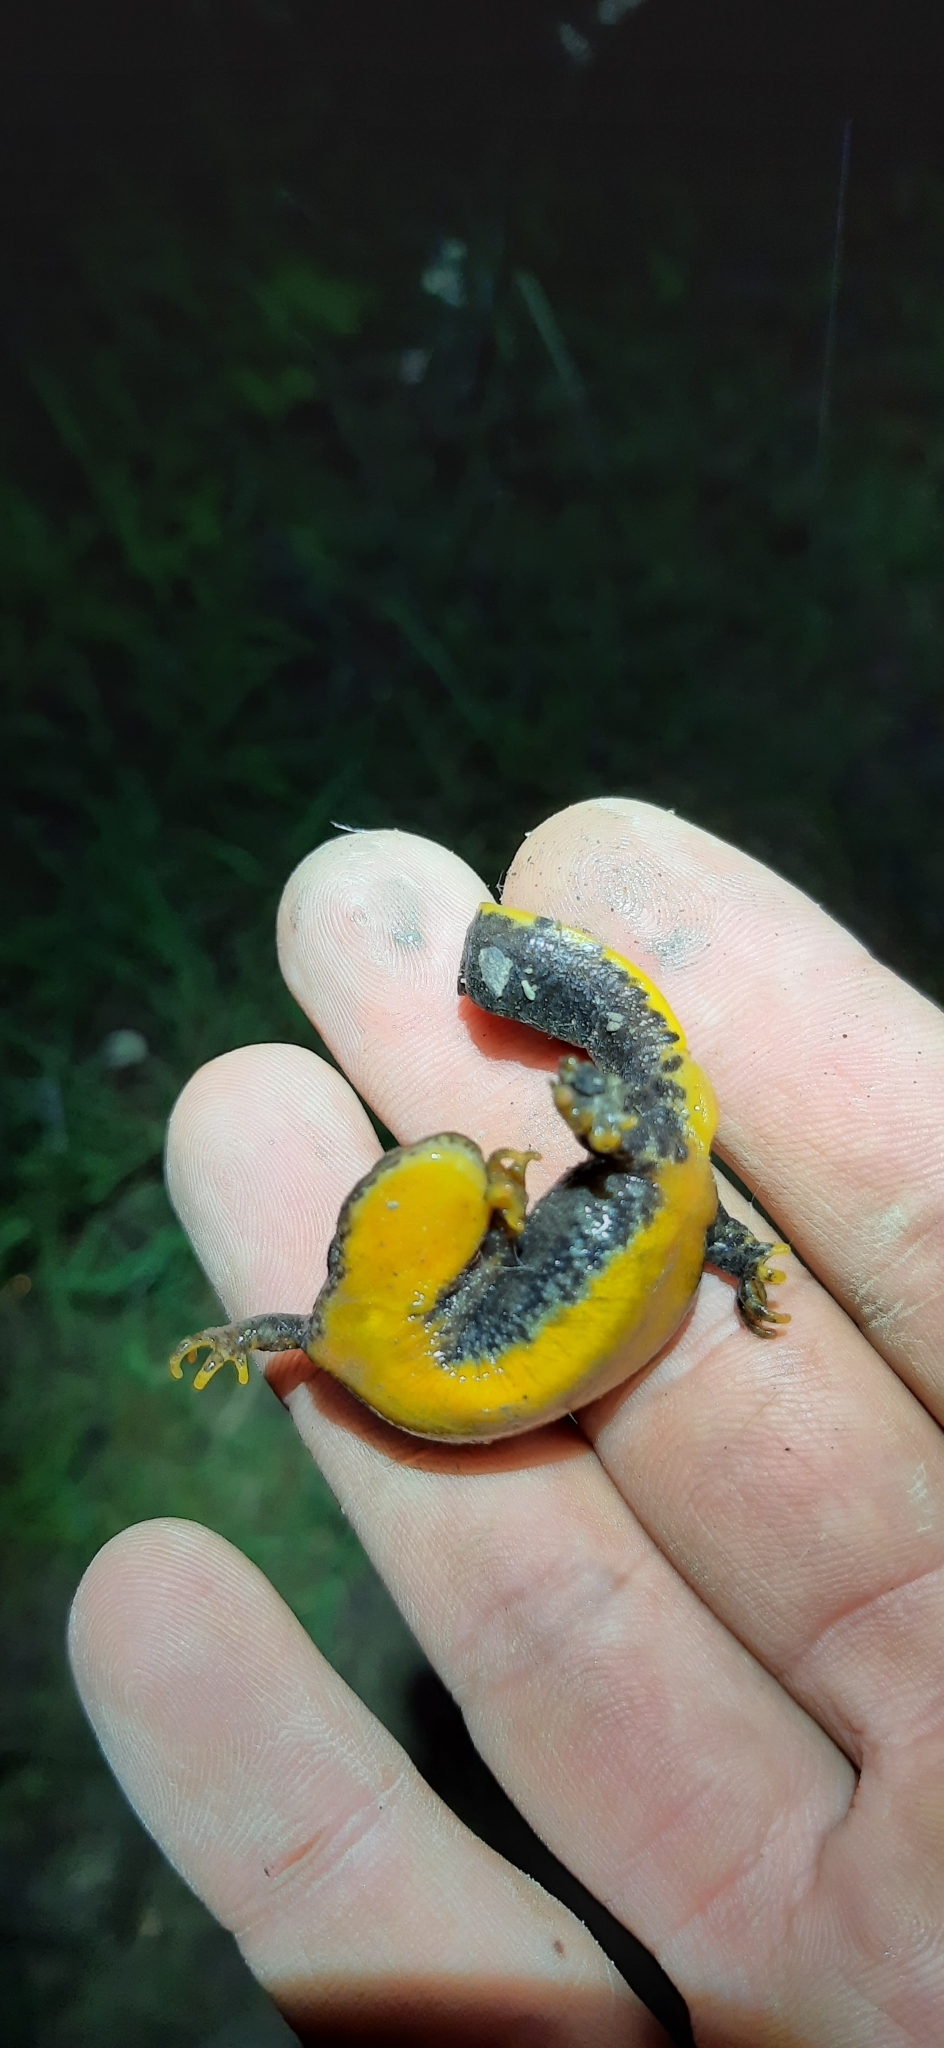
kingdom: Animalia
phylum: Chordata
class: Amphibia
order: Caudata
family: Salamandridae
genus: Ichthyosaura
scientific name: Ichthyosaura alpestris
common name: Alpine newt
